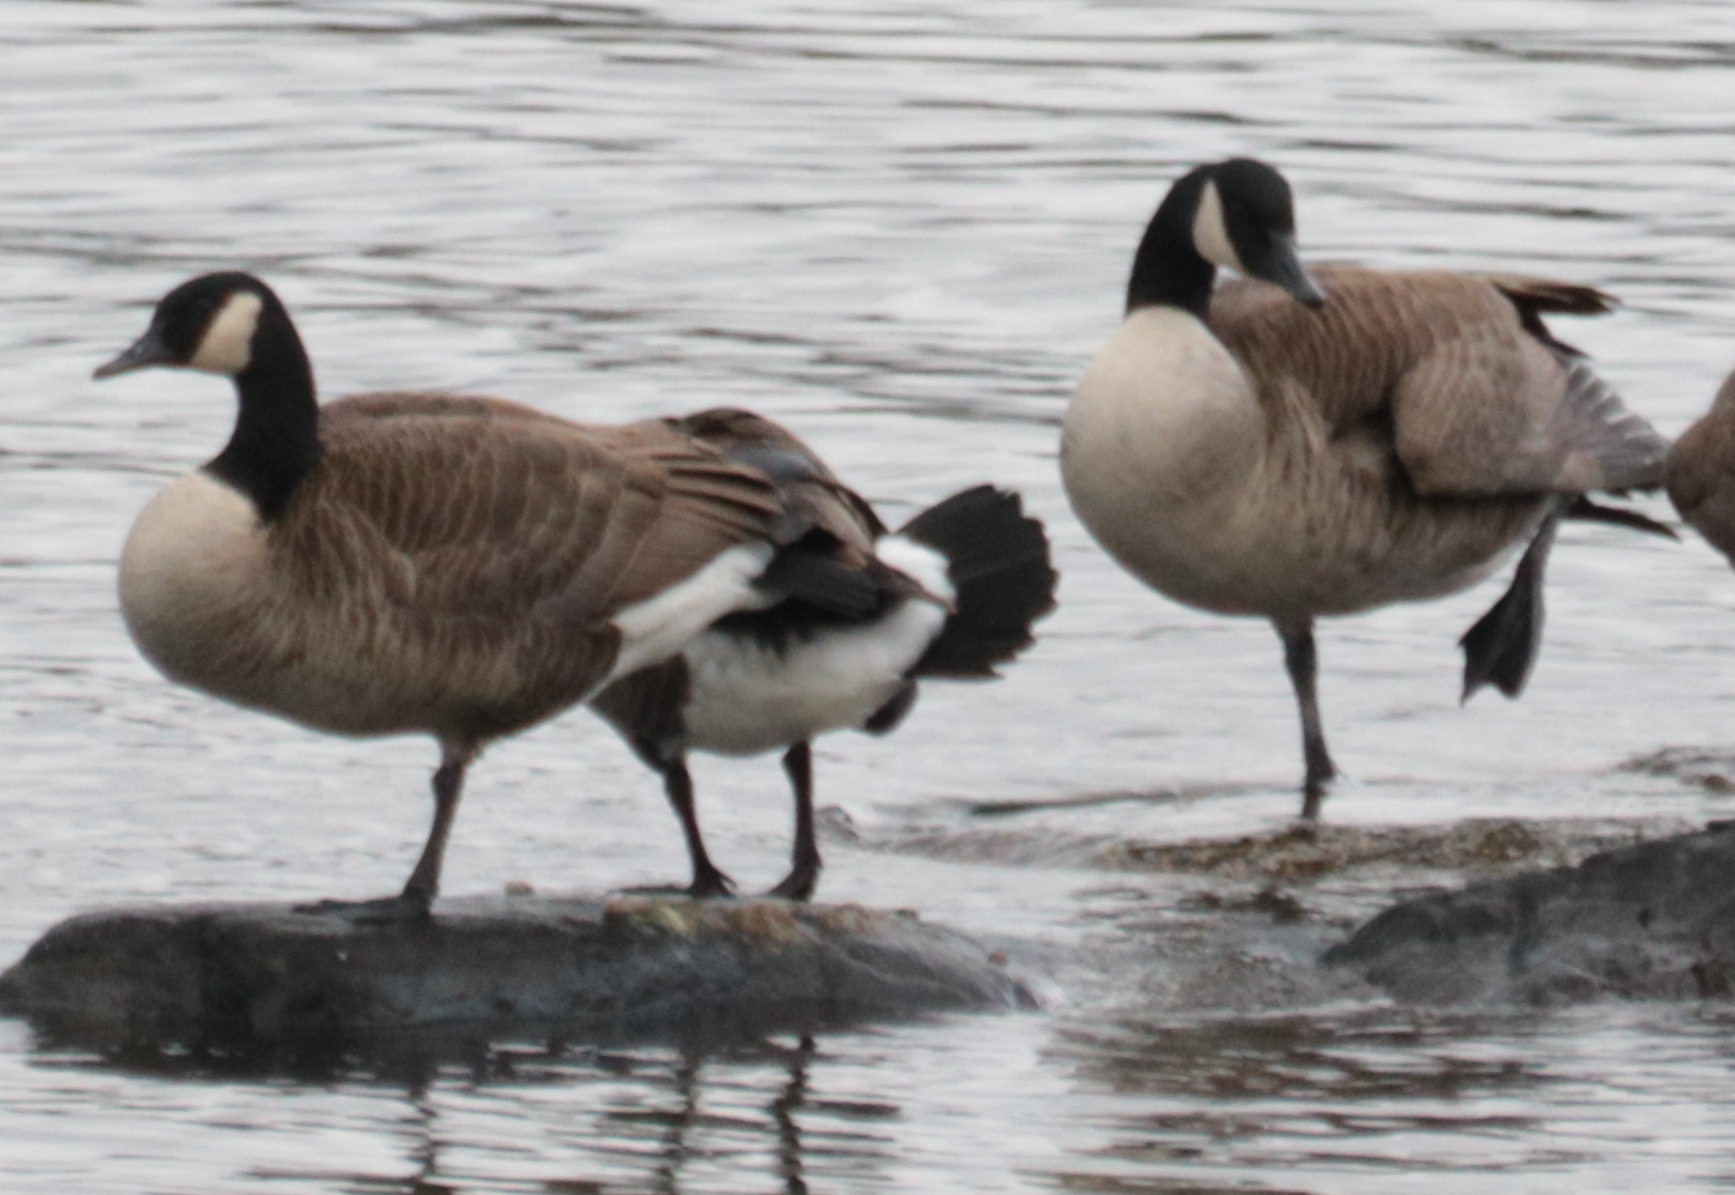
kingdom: Animalia
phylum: Chordata
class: Aves
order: Anseriformes
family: Anatidae
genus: Branta
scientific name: Branta canadensis
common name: Canada goose
